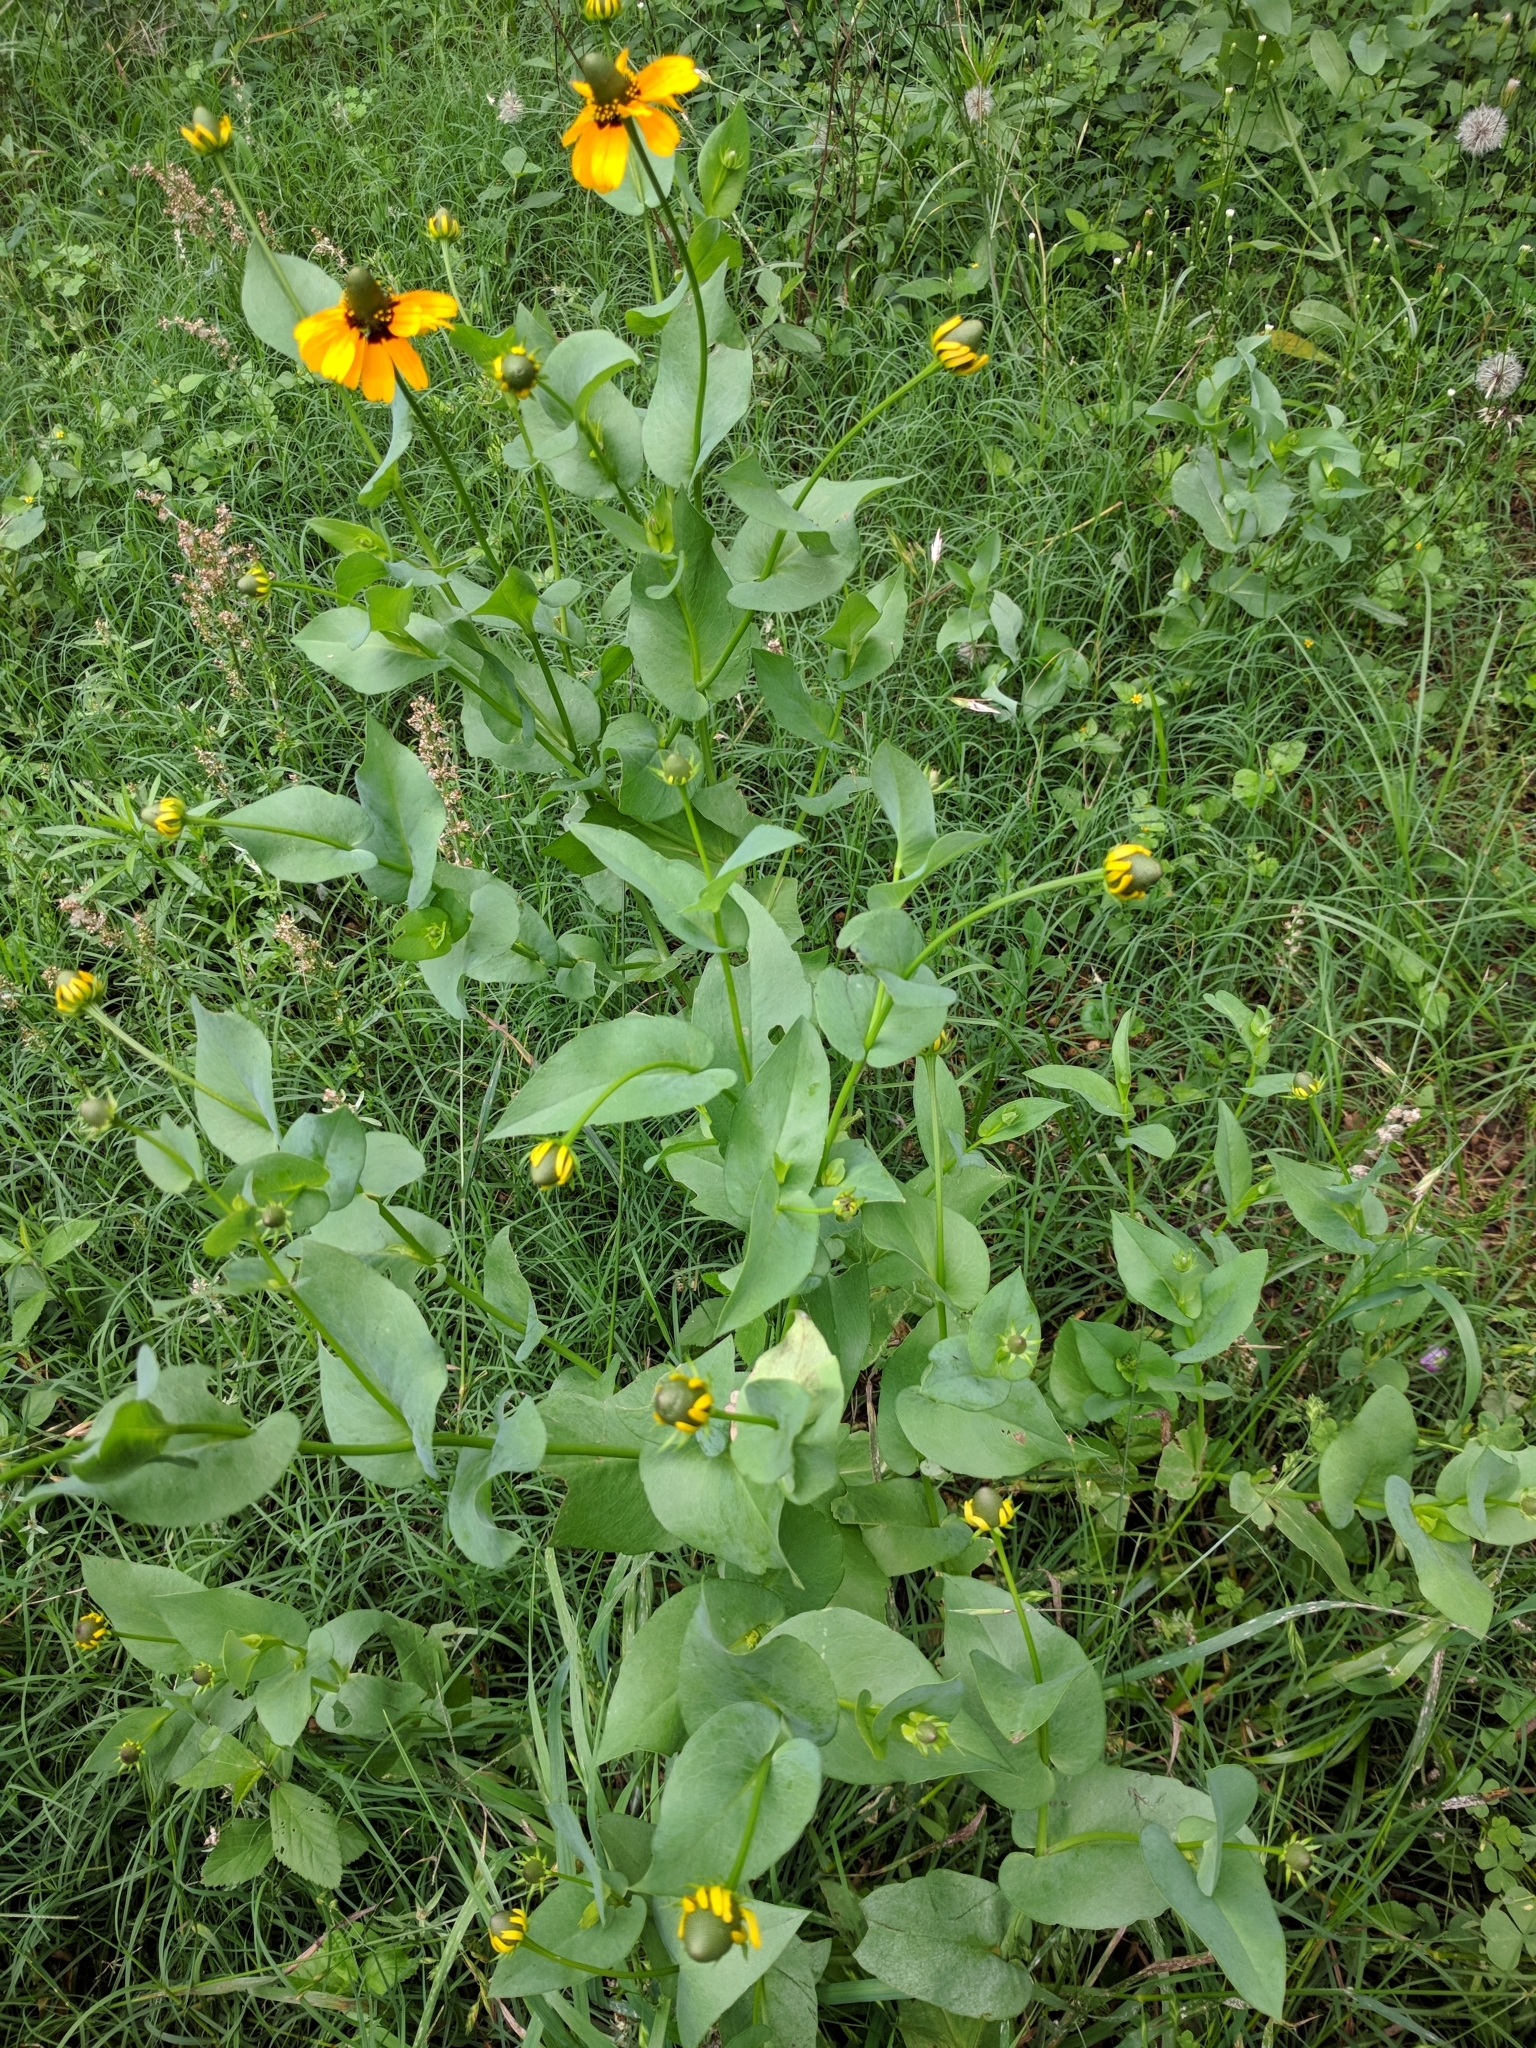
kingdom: Plantae
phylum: Tracheophyta
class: Magnoliopsida
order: Asterales
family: Asteraceae
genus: Rudbeckia
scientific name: Rudbeckia amplexicaulis
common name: Clasping-leaf coneflower
